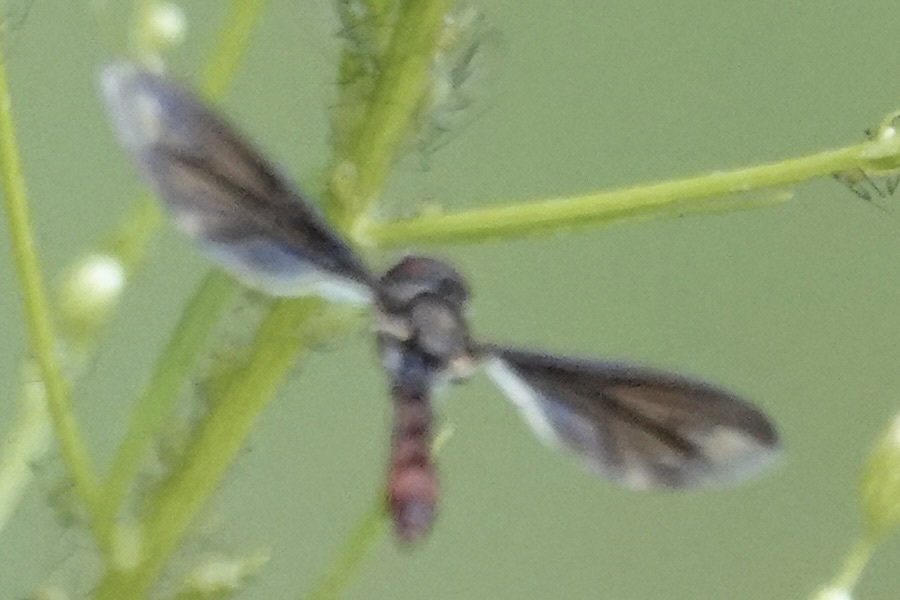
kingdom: Animalia
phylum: Arthropoda
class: Insecta
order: Diptera
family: Syrphidae
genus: Ocyptamus
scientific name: Ocyptamus fuscipennis
